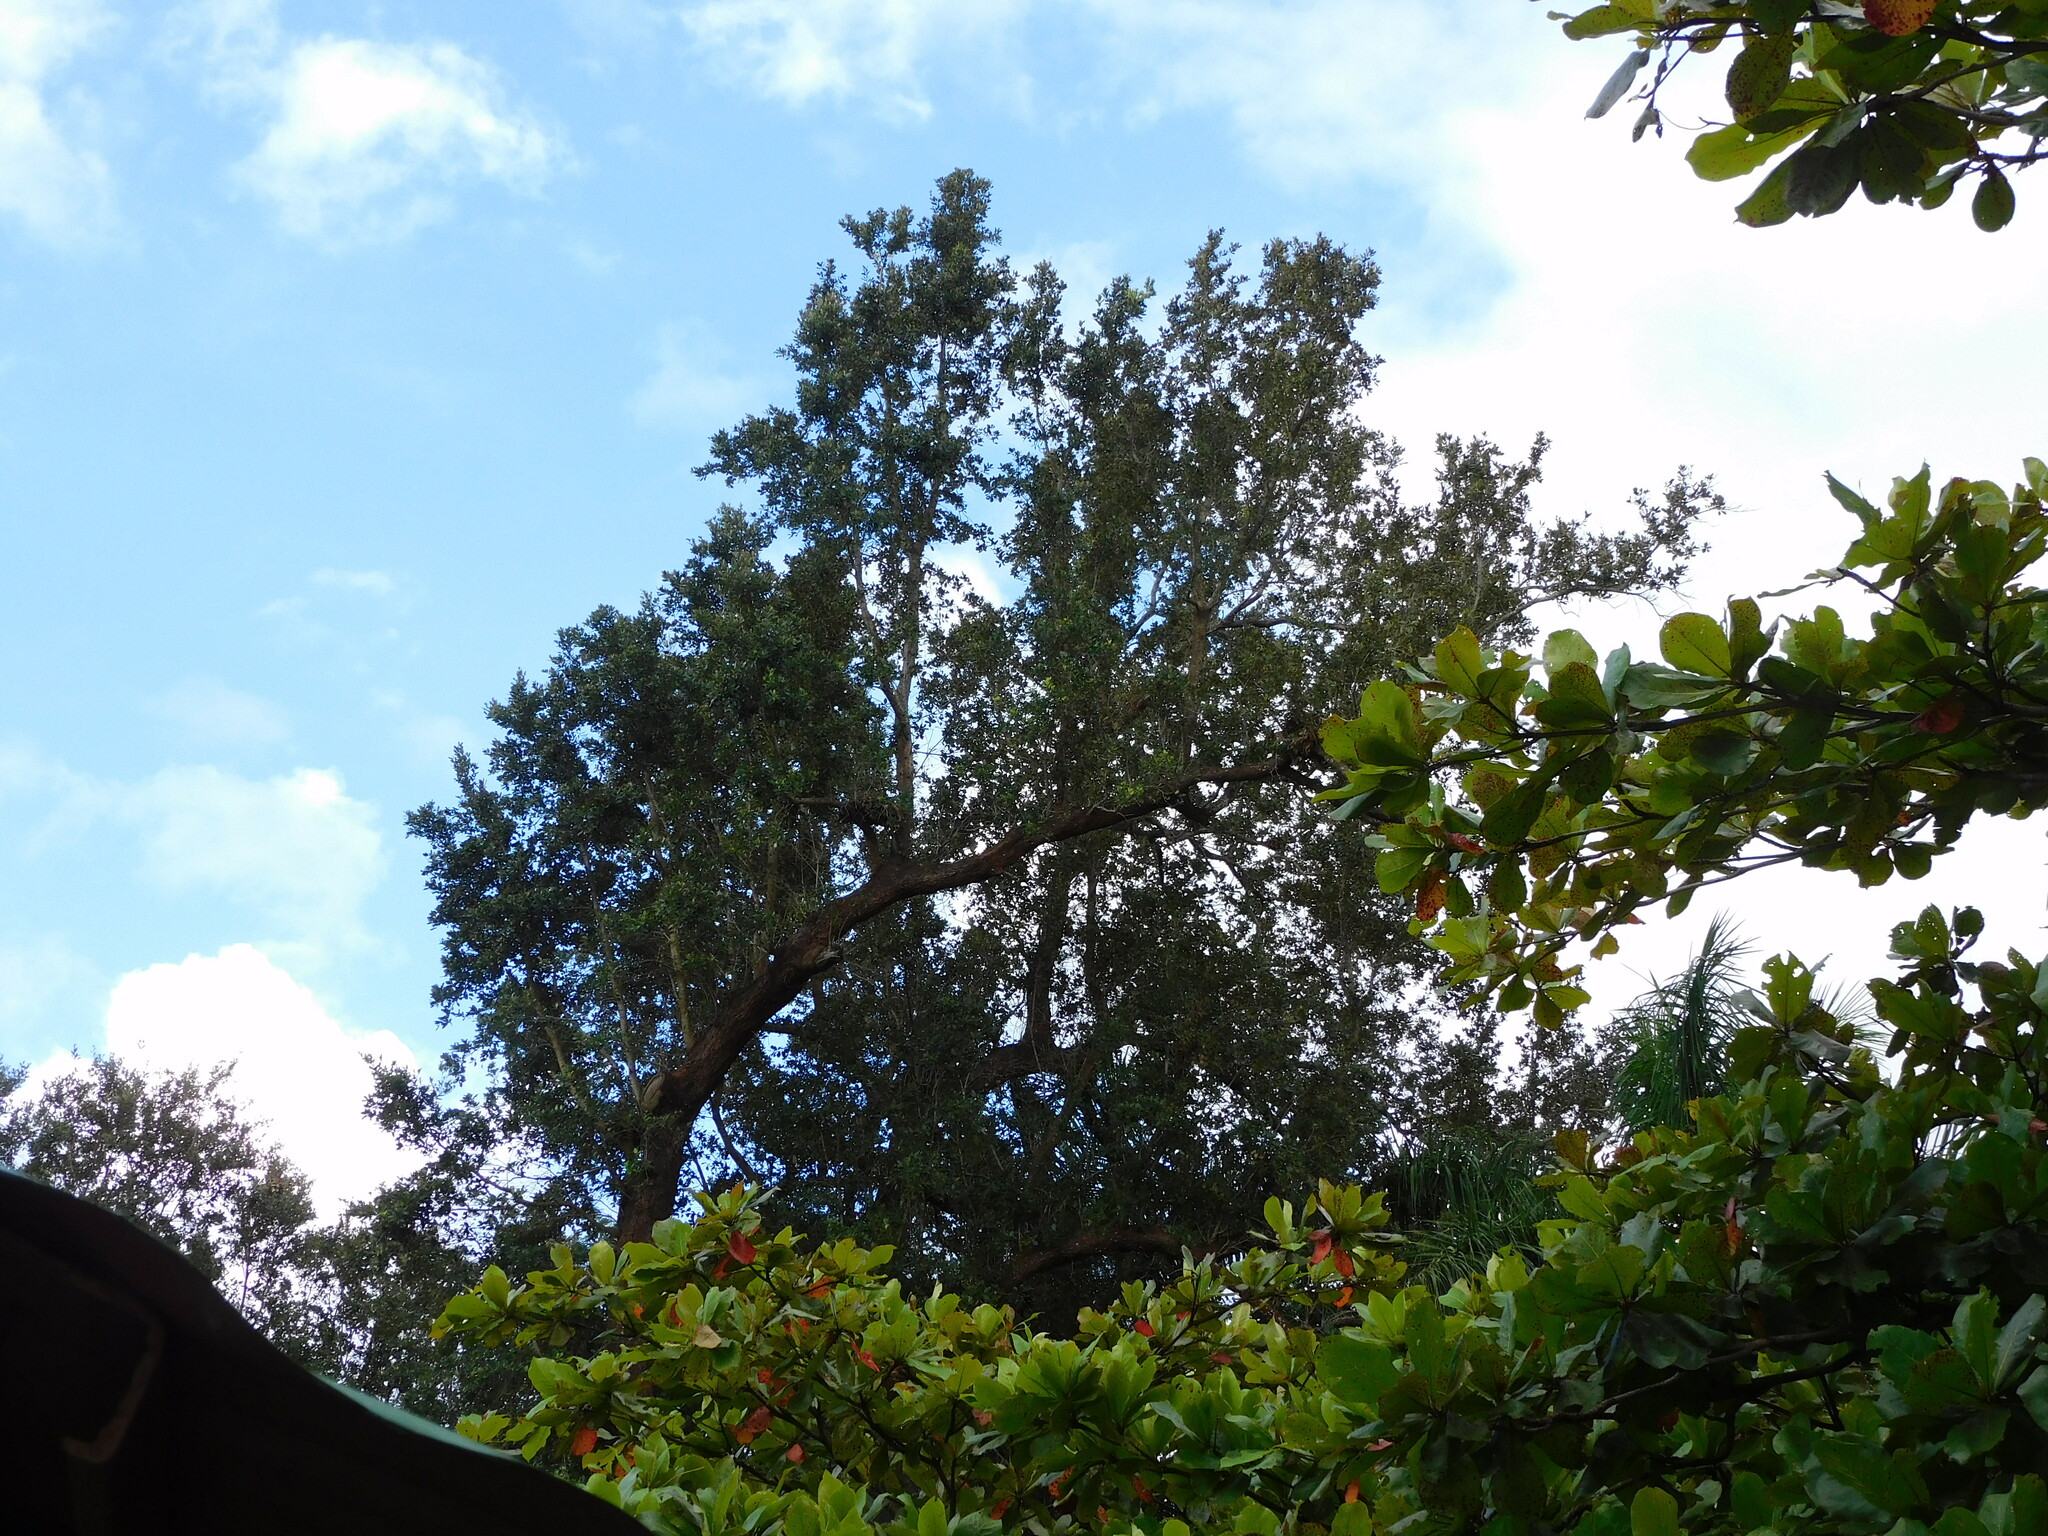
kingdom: Plantae
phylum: Tracheophyta
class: Magnoliopsida
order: Fagales
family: Fagaceae
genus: Quercus
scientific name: Quercus oleoides
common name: White oak
